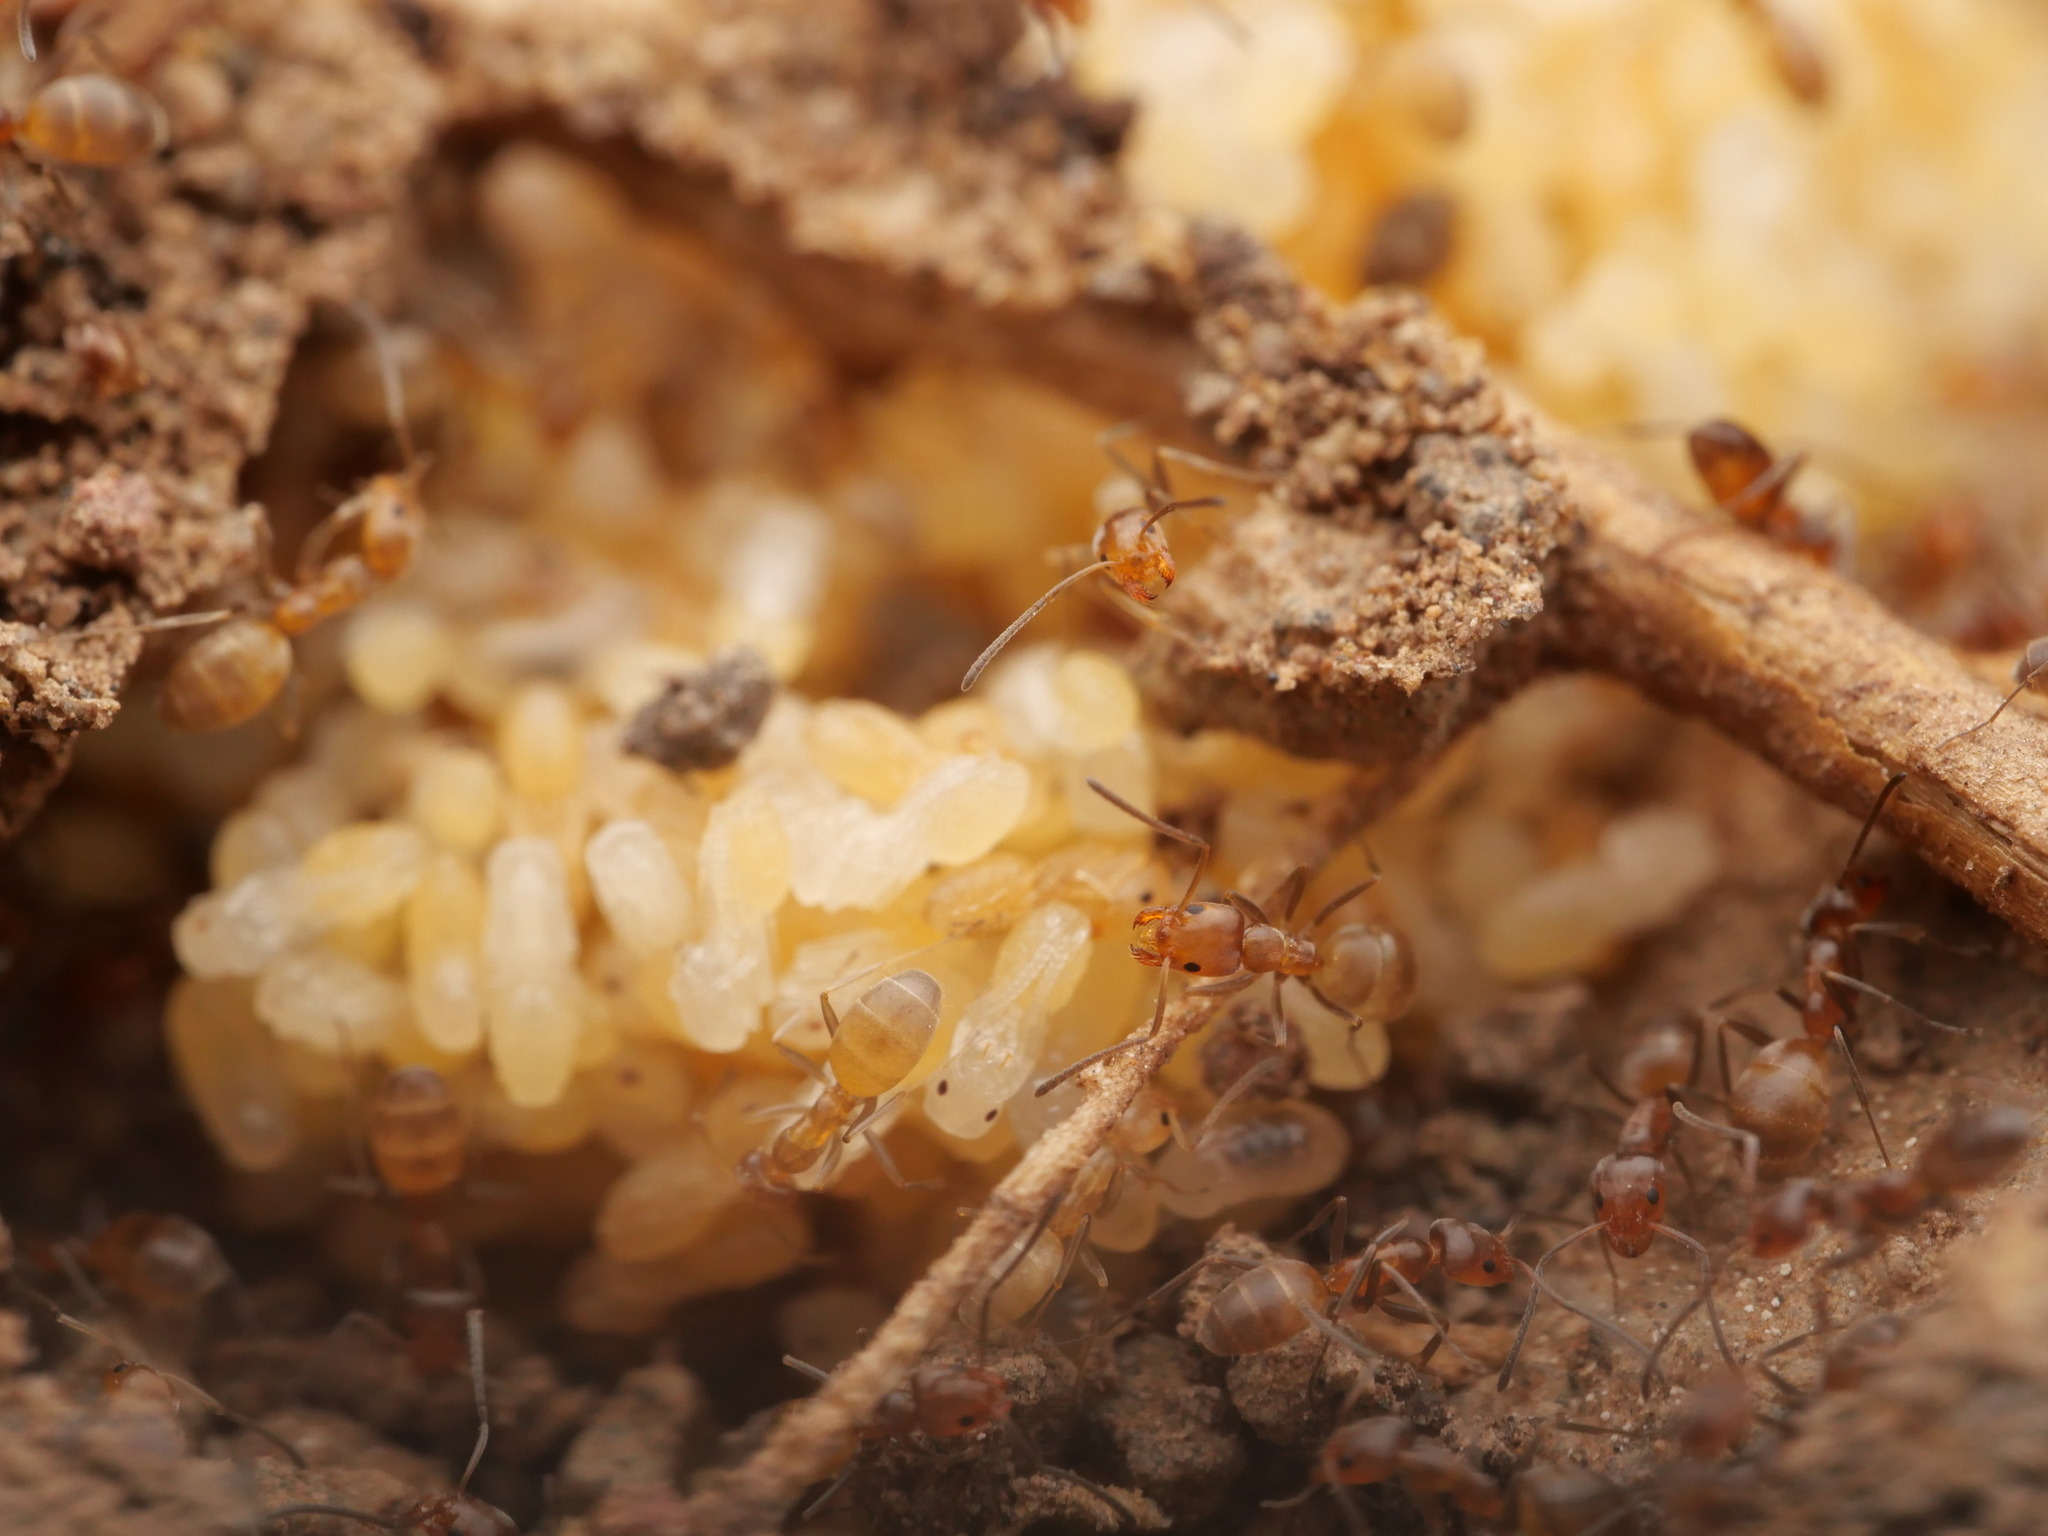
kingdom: Animalia
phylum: Arthropoda
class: Insecta
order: Hymenoptera
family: Formicidae
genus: Forelius
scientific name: Forelius mccooki
